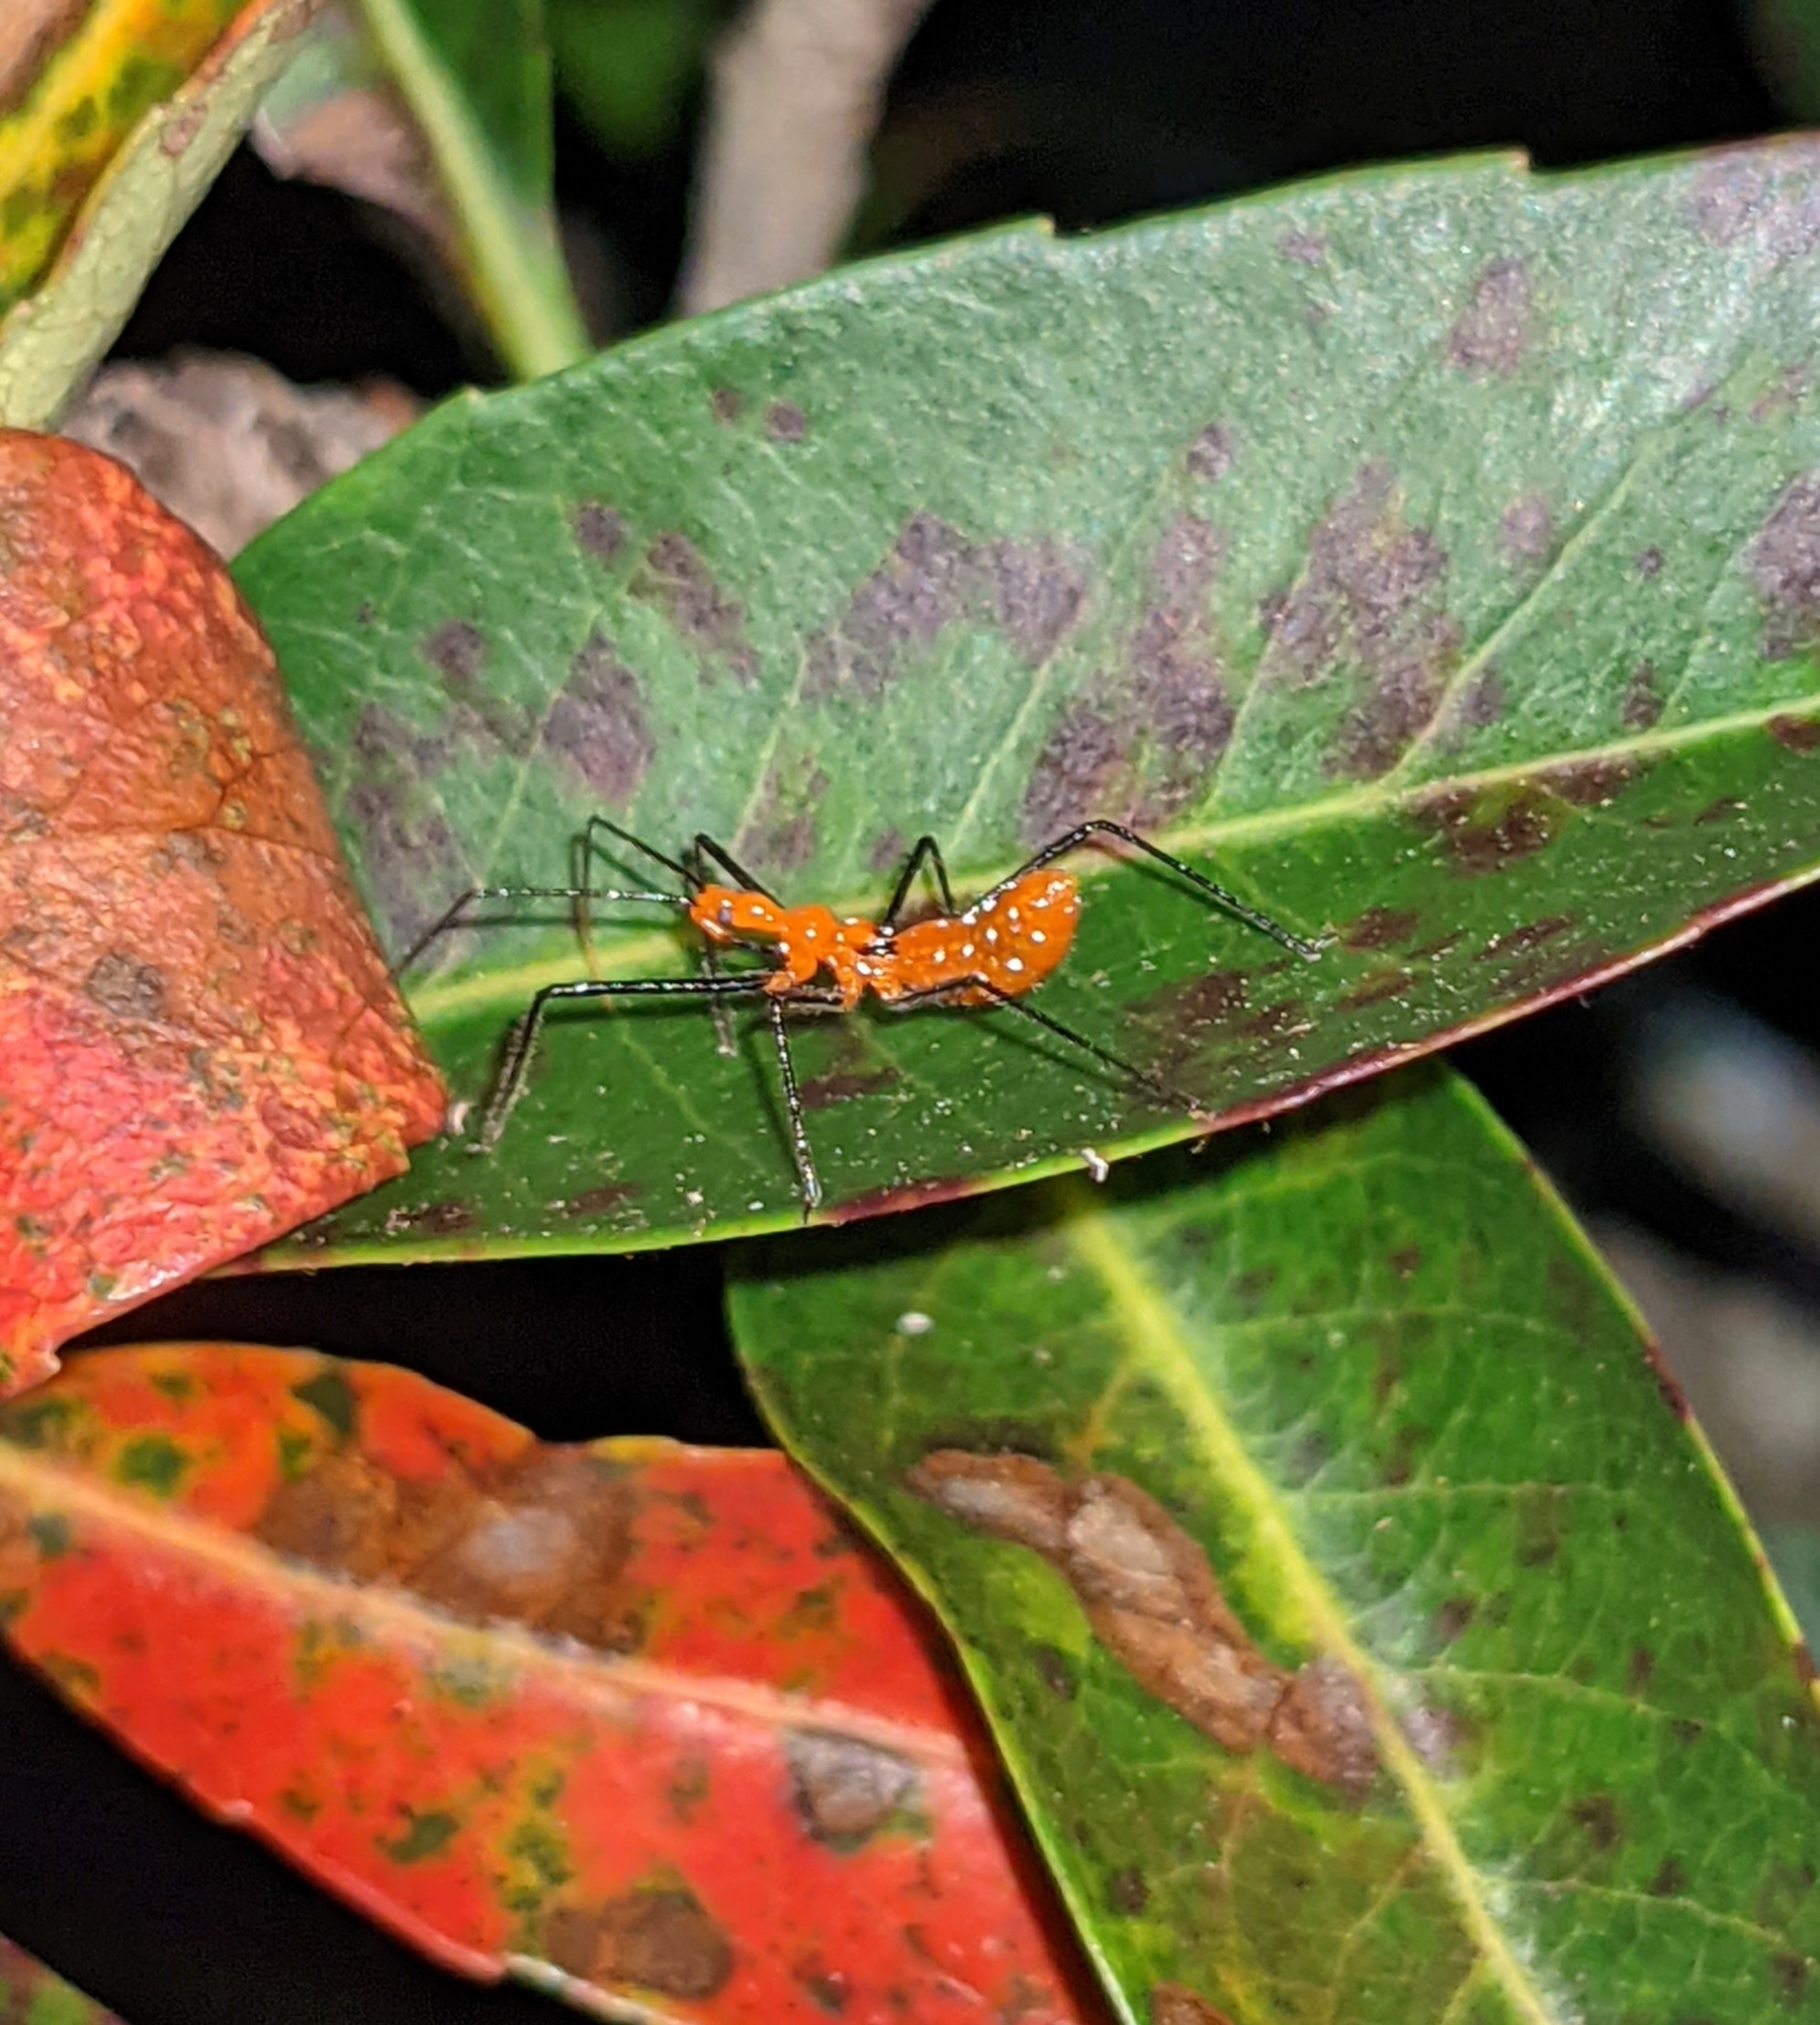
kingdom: Animalia
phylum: Arthropoda
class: Insecta
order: Hemiptera
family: Reduviidae
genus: Zelus
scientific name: Zelus longipes
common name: Milkweed assassin bug
